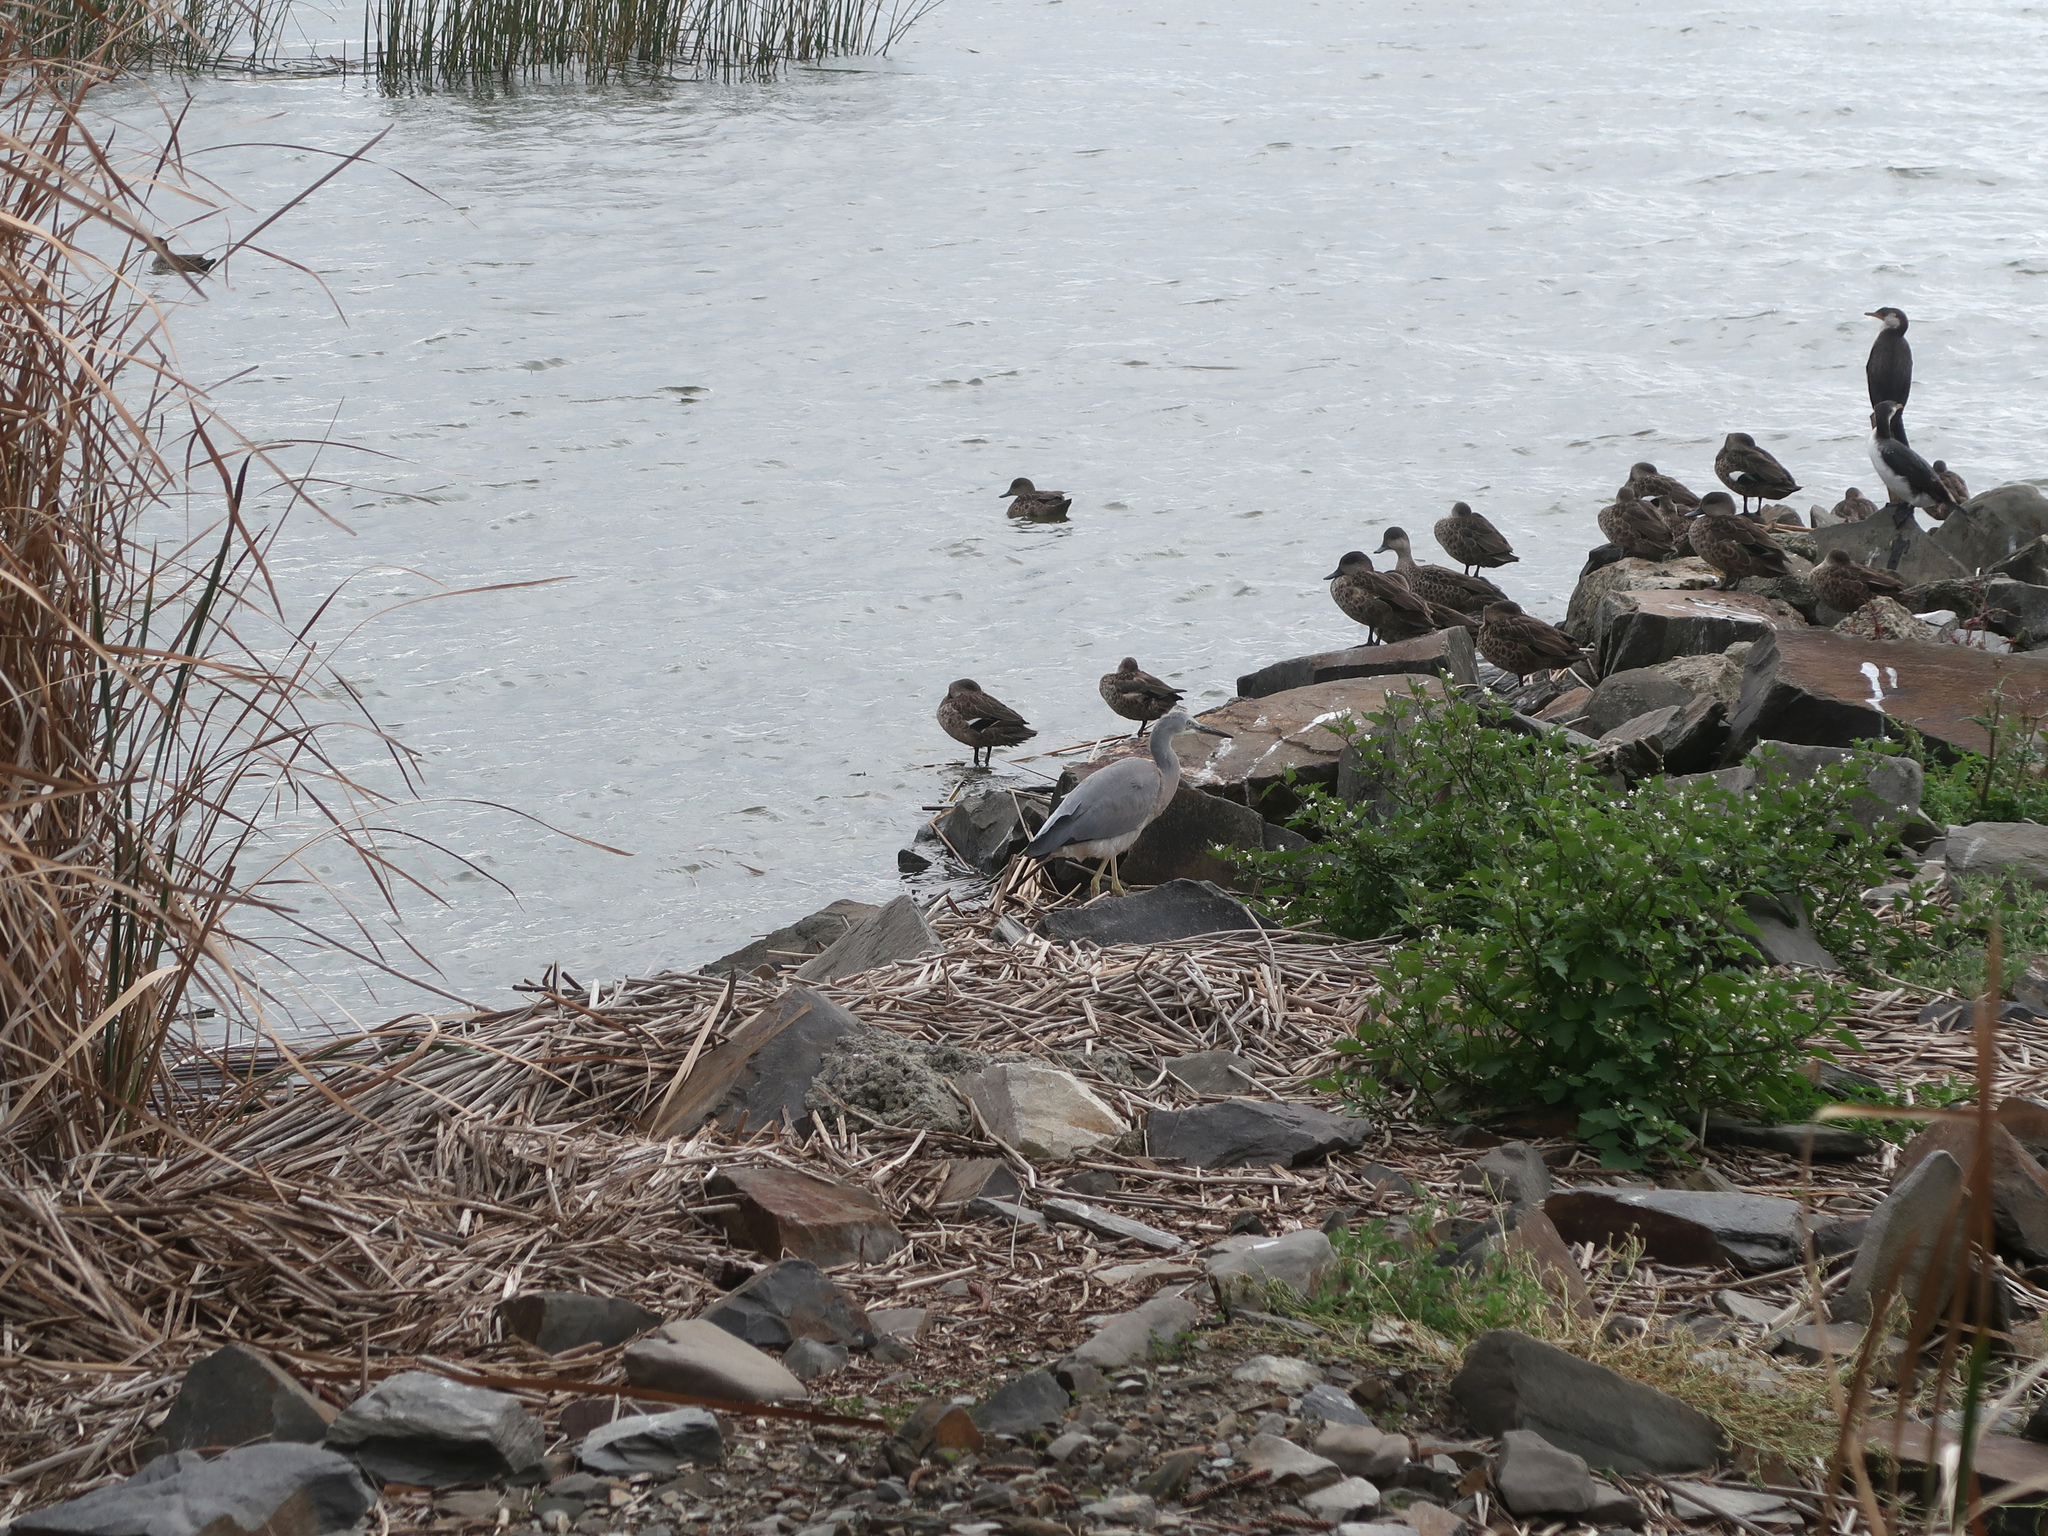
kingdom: Animalia
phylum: Chordata
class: Aves
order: Pelecaniformes
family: Ardeidae
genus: Egretta
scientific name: Egretta novaehollandiae
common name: White-faced heron
